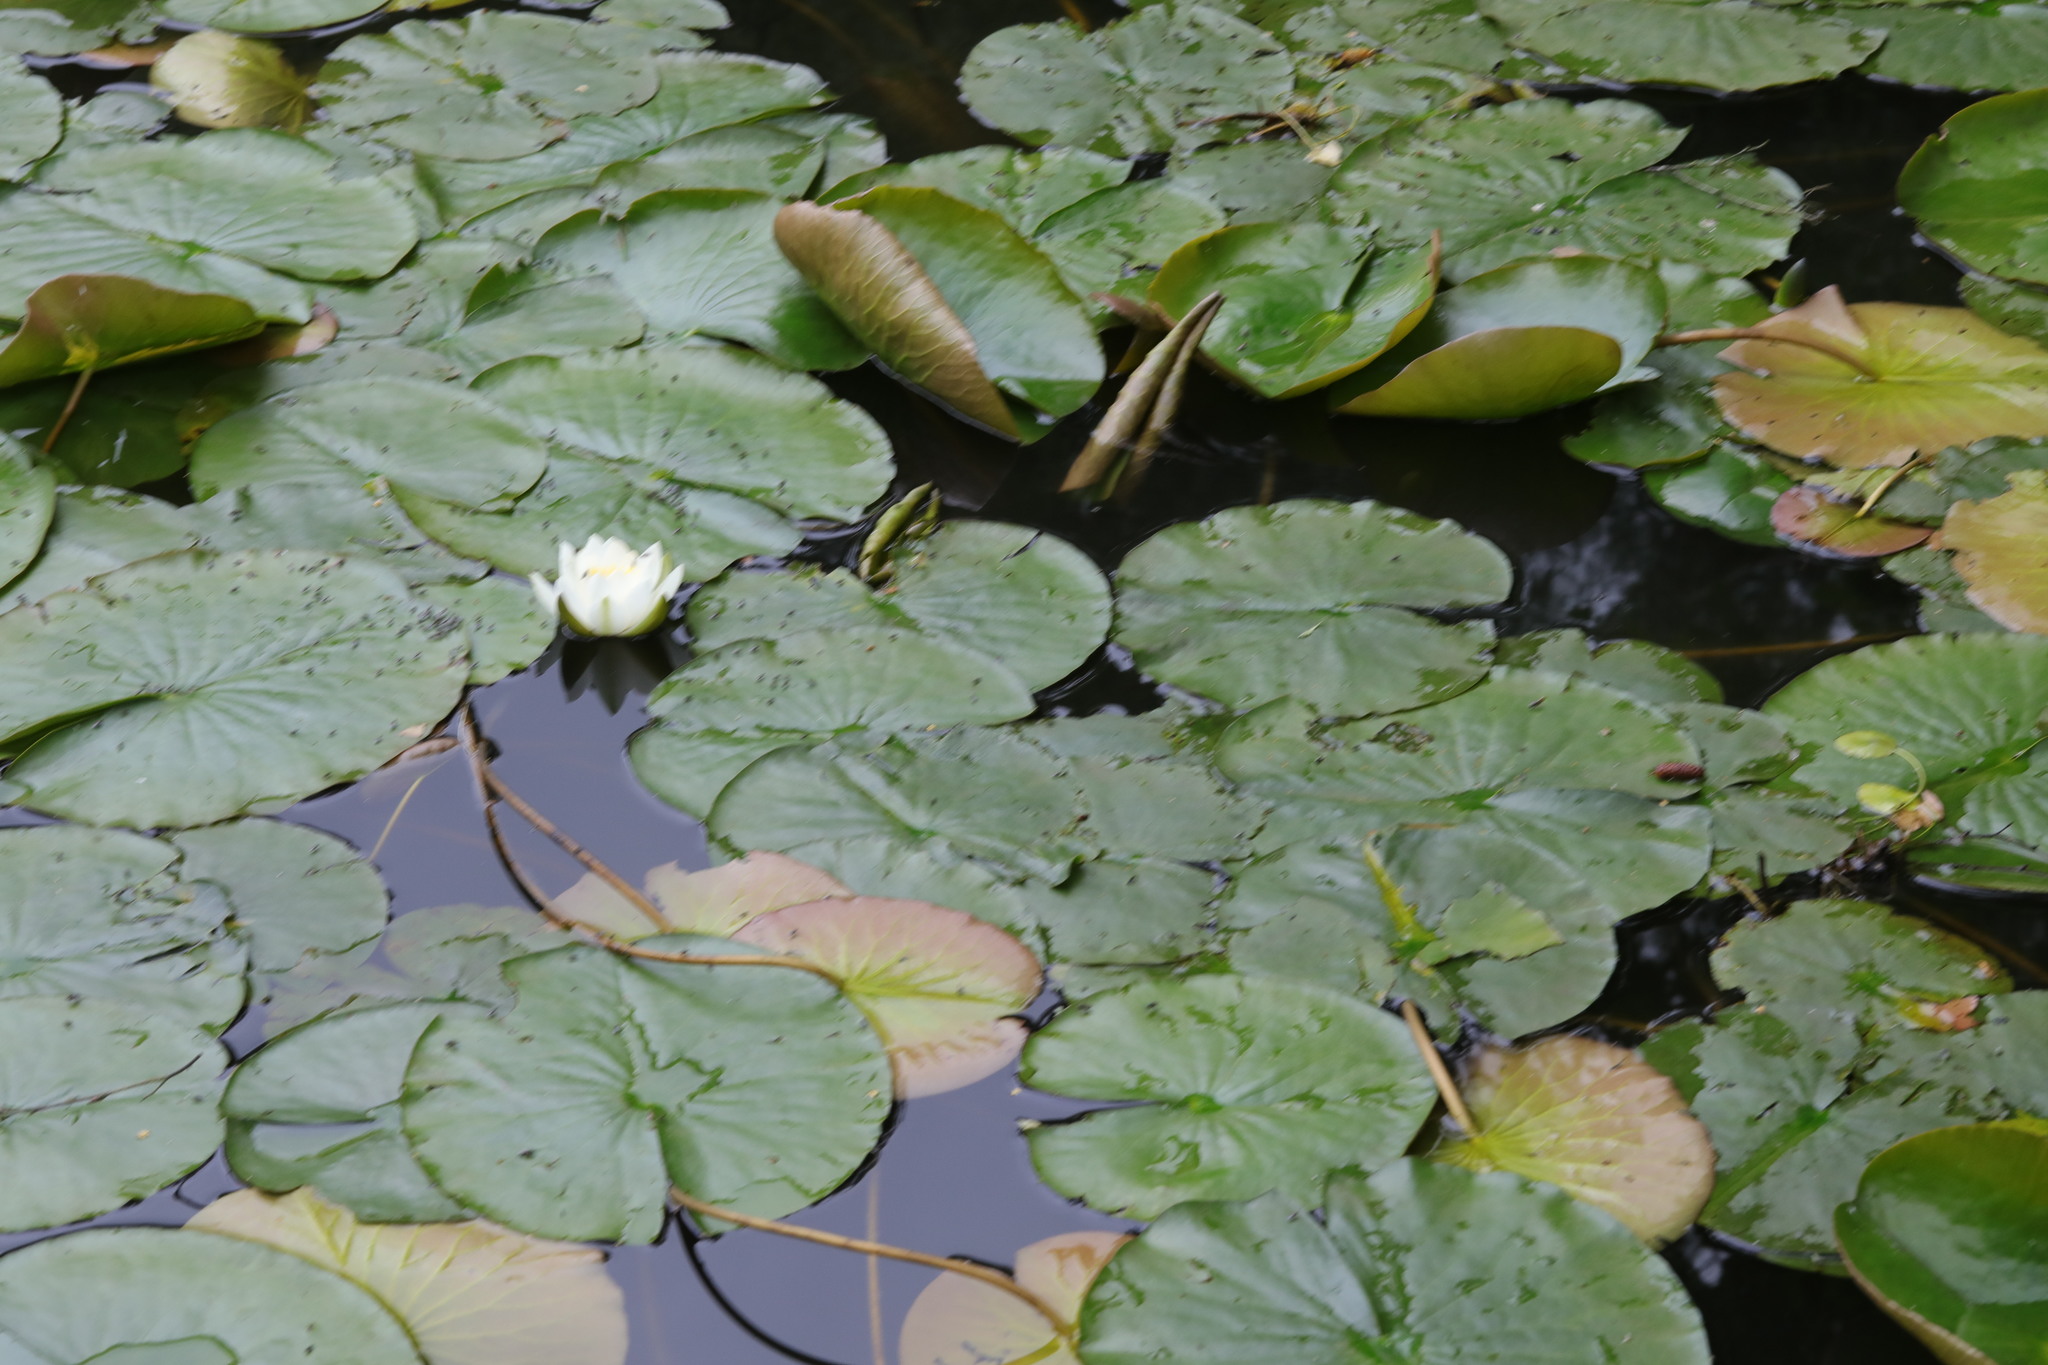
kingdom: Plantae
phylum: Tracheophyta
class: Magnoliopsida
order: Nymphaeales
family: Nymphaeaceae
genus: Nymphaea
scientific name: Nymphaea alba
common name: White water-lily
